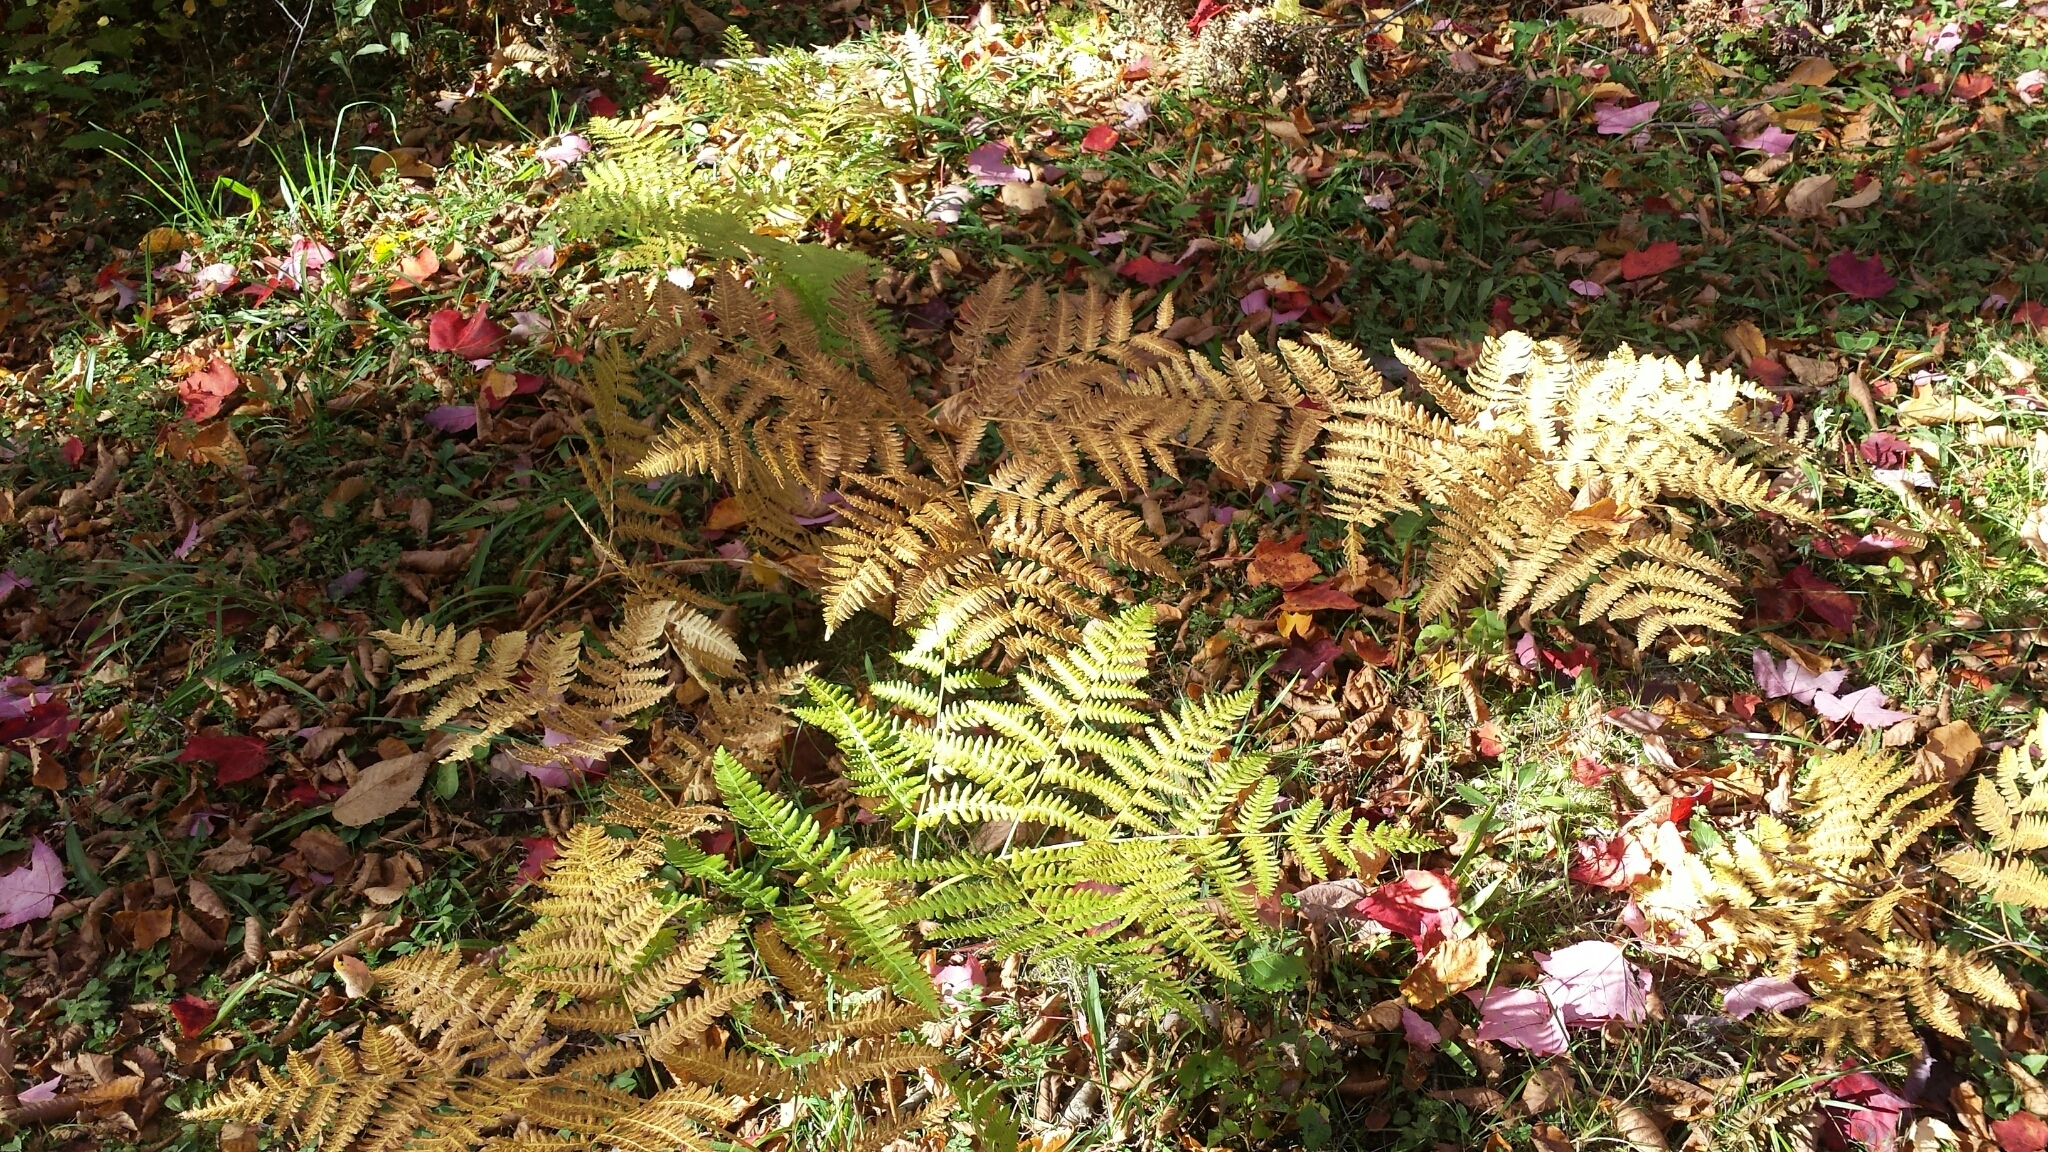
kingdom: Plantae
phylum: Tracheophyta
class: Polypodiopsida
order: Polypodiales
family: Dennstaedtiaceae
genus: Pteridium
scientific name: Pteridium aquilinum
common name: Bracken
